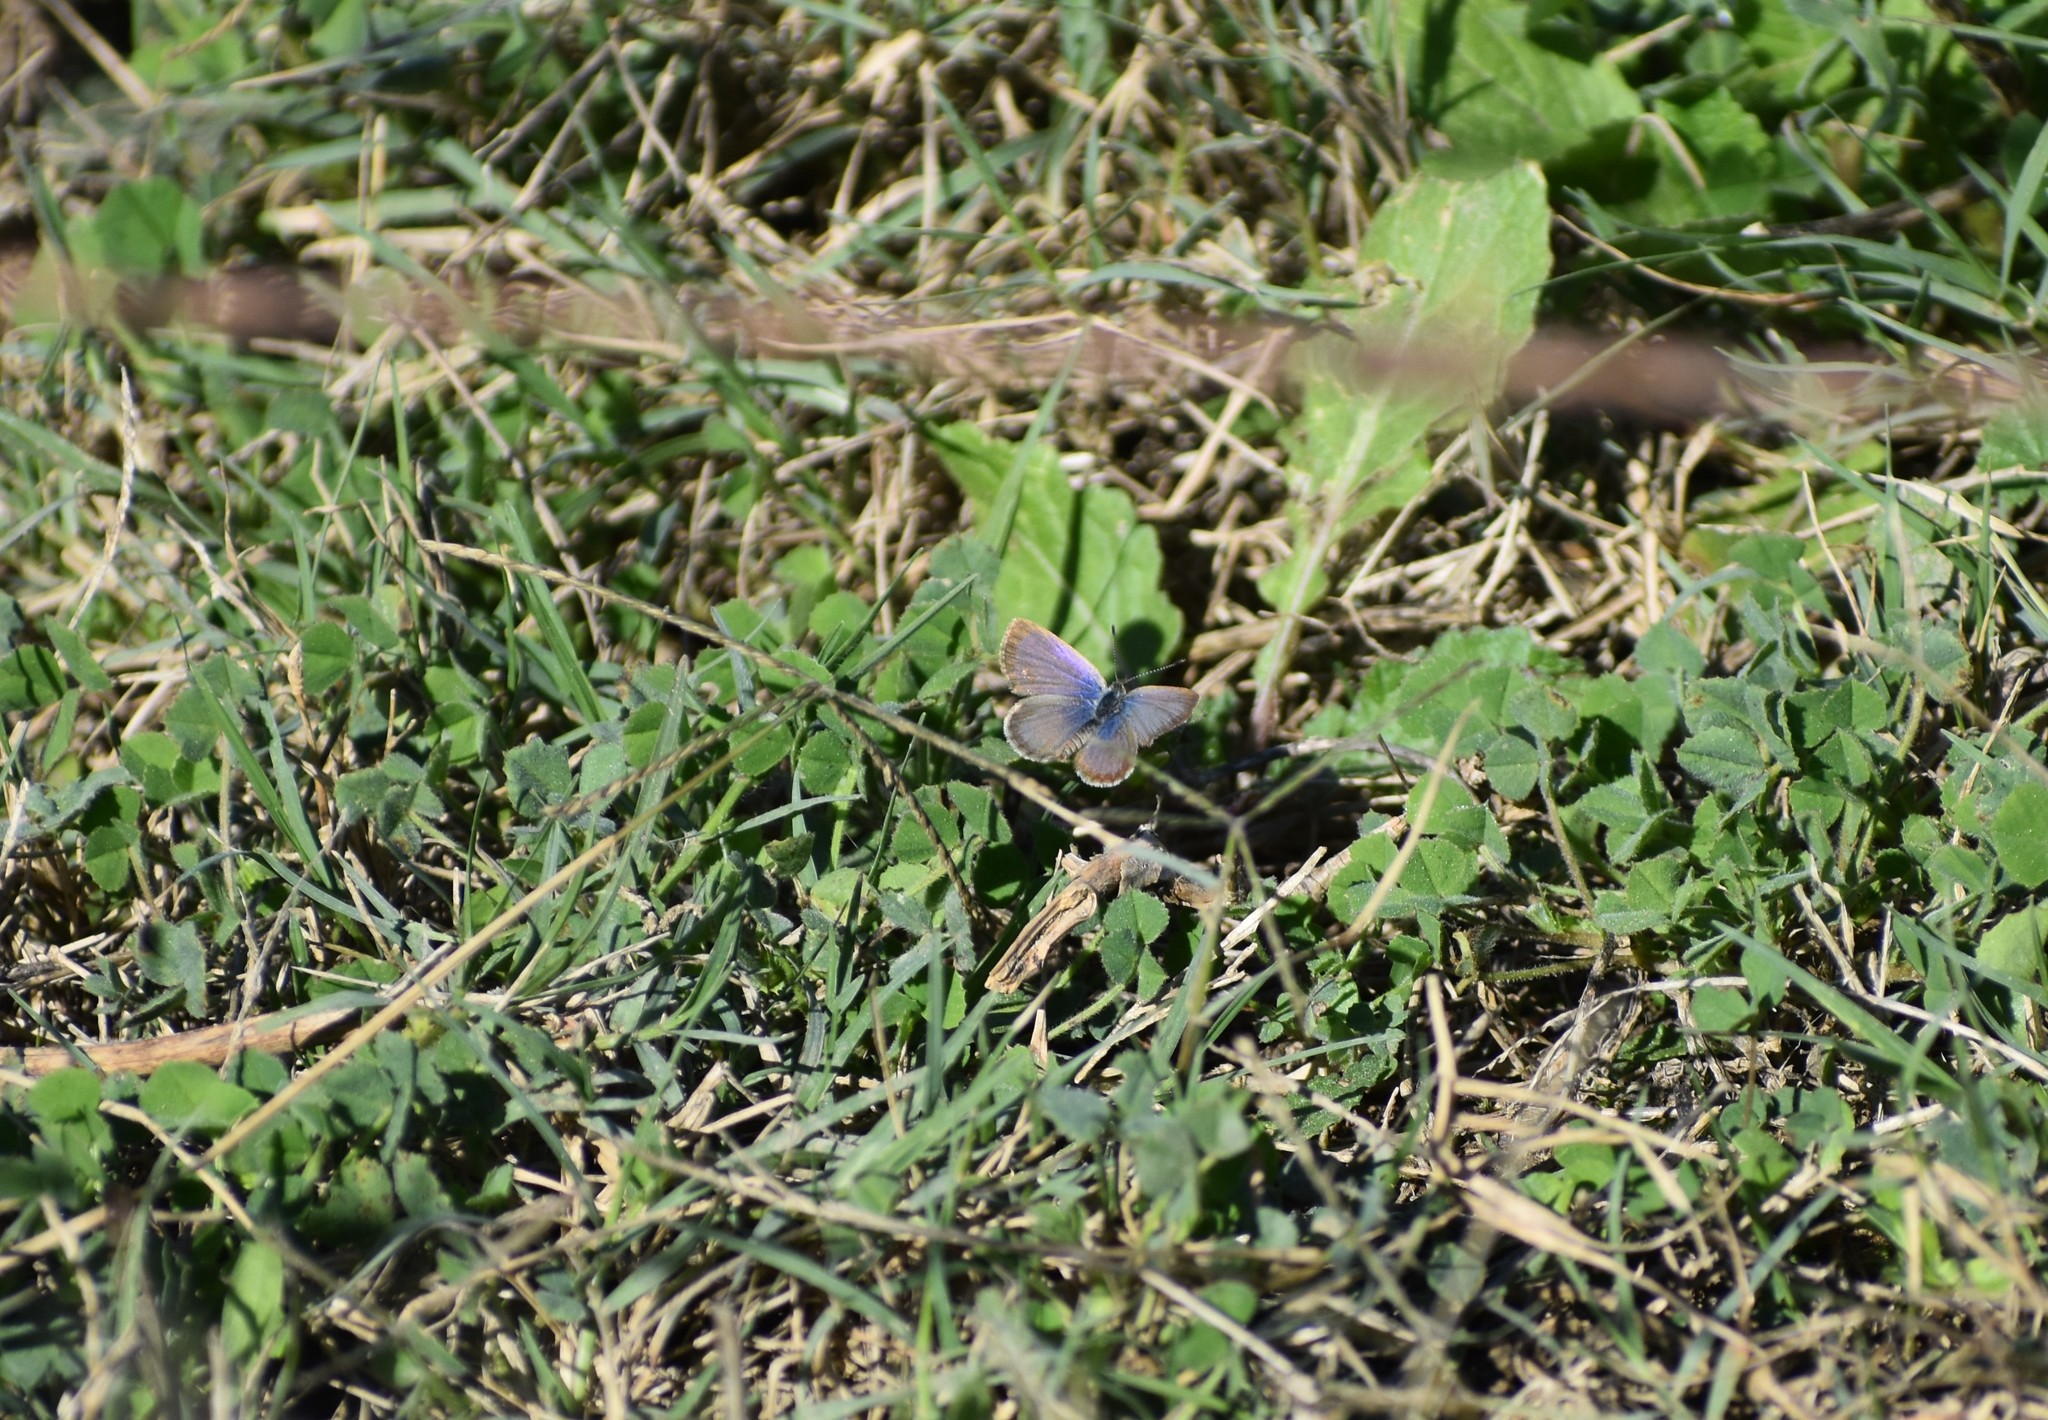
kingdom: Animalia
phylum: Arthropoda
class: Insecta
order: Lepidoptera
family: Lycaenidae
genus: Zizeeria
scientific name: Zizeeria knysna
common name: African grass blue
